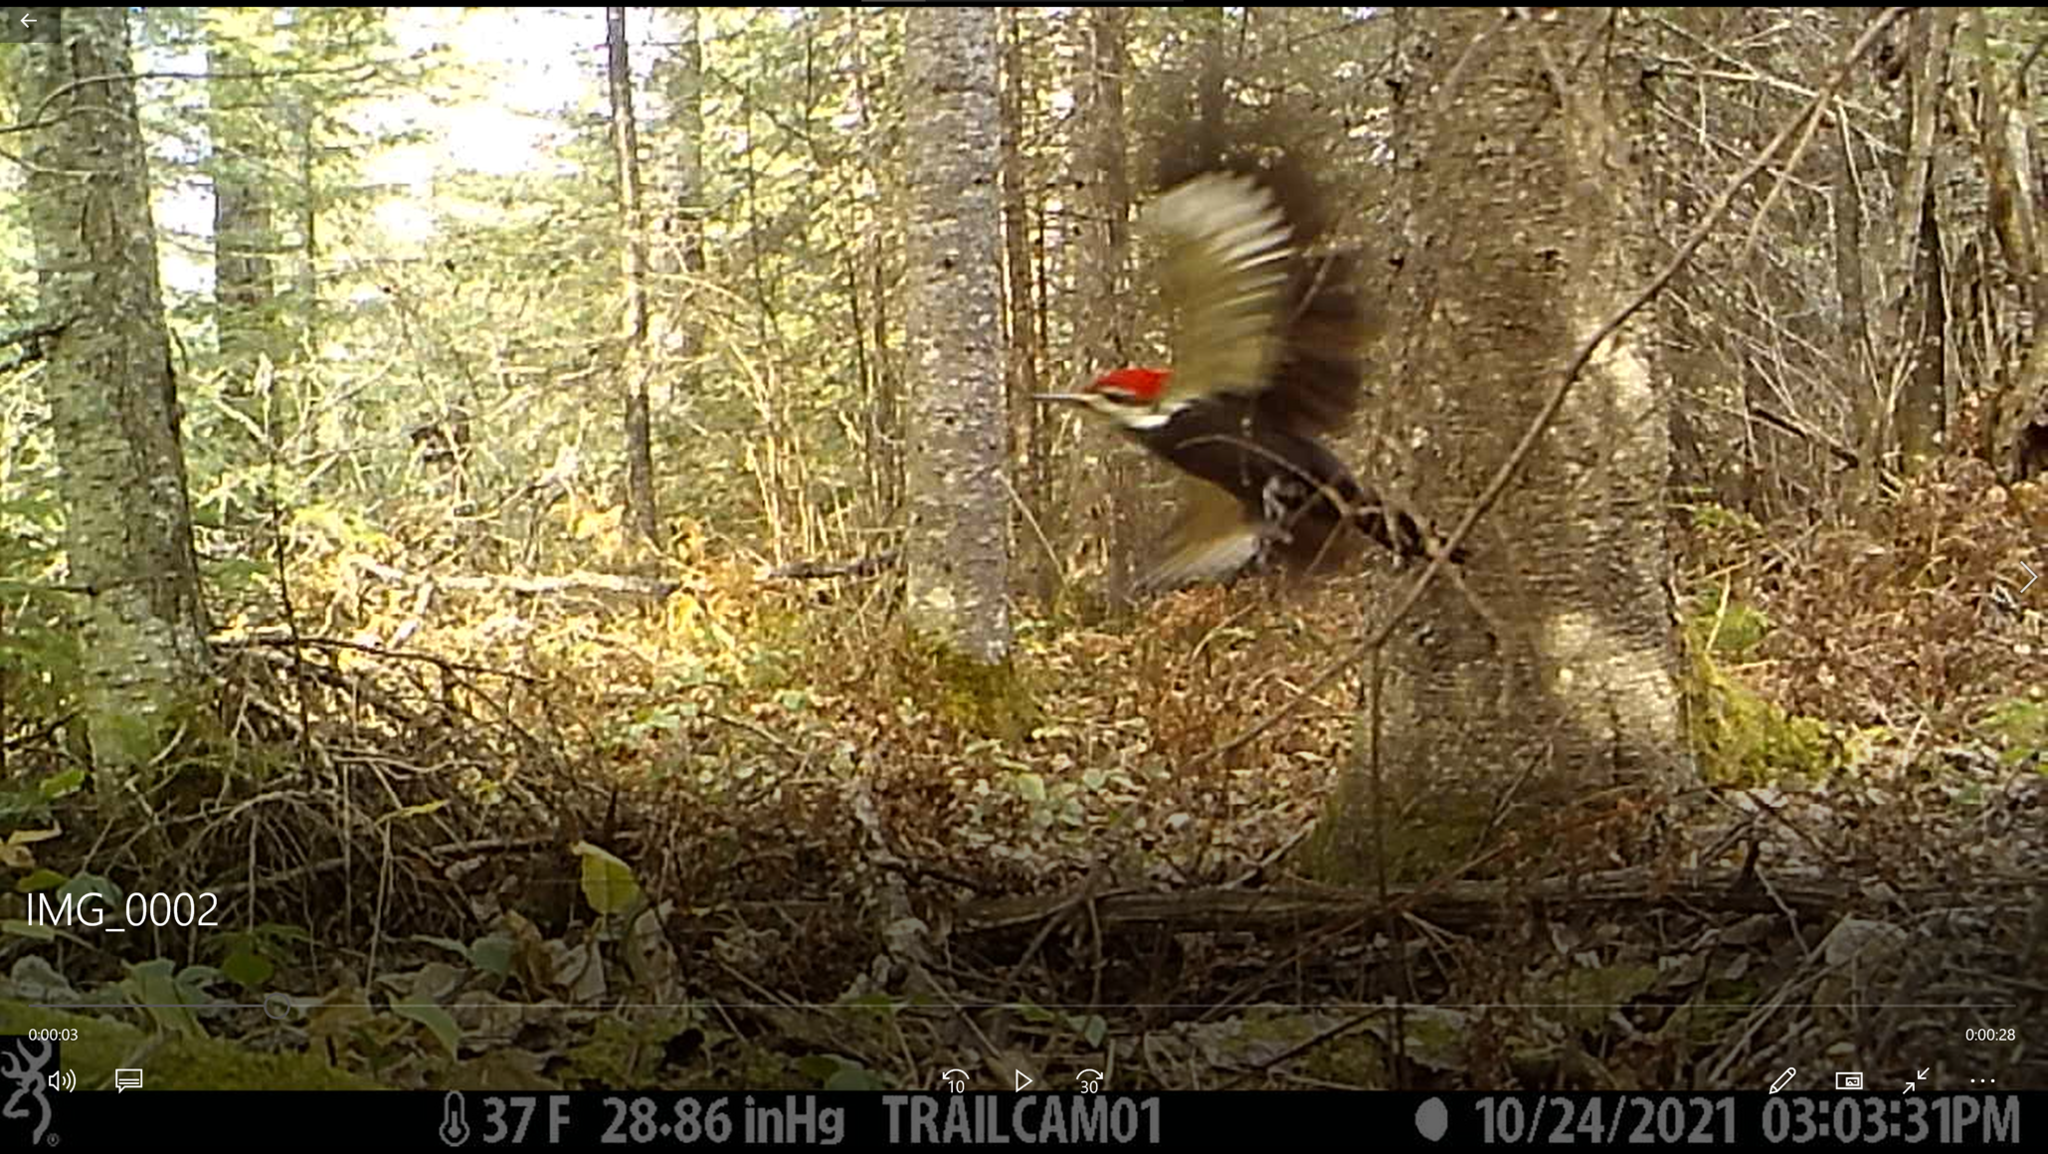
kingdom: Animalia
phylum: Chordata
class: Aves
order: Piciformes
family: Picidae
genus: Dryocopus
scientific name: Dryocopus pileatus
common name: Pileated woodpecker
